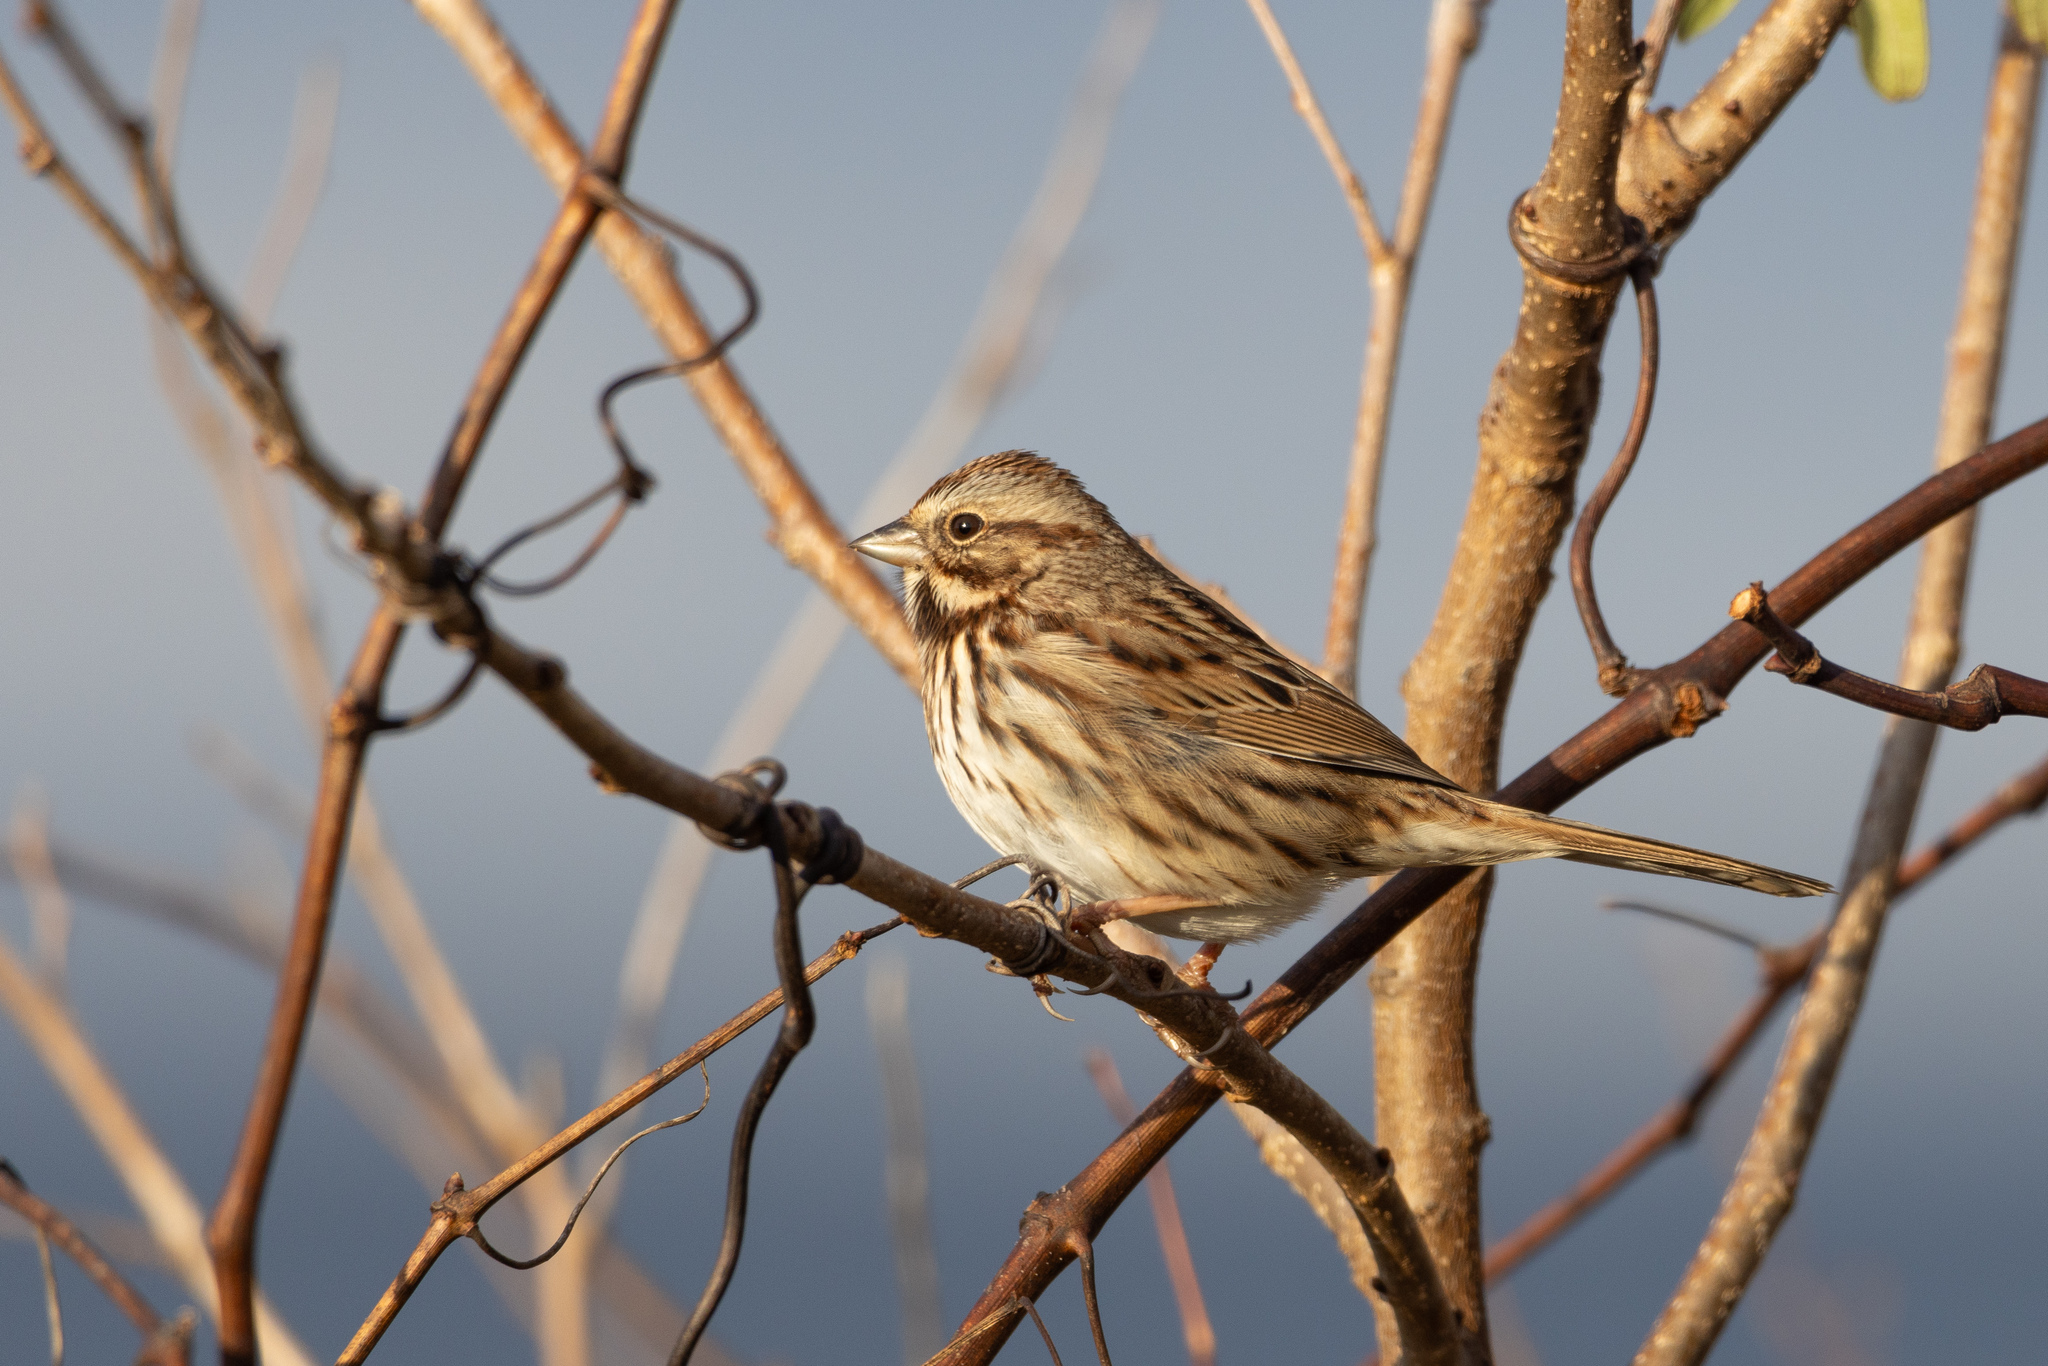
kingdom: Animalia
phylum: Chordata
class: Aves
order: Passeriformes
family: Passerellidae
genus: Melospiza
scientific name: Melospiza melodia
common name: Song sparrow
